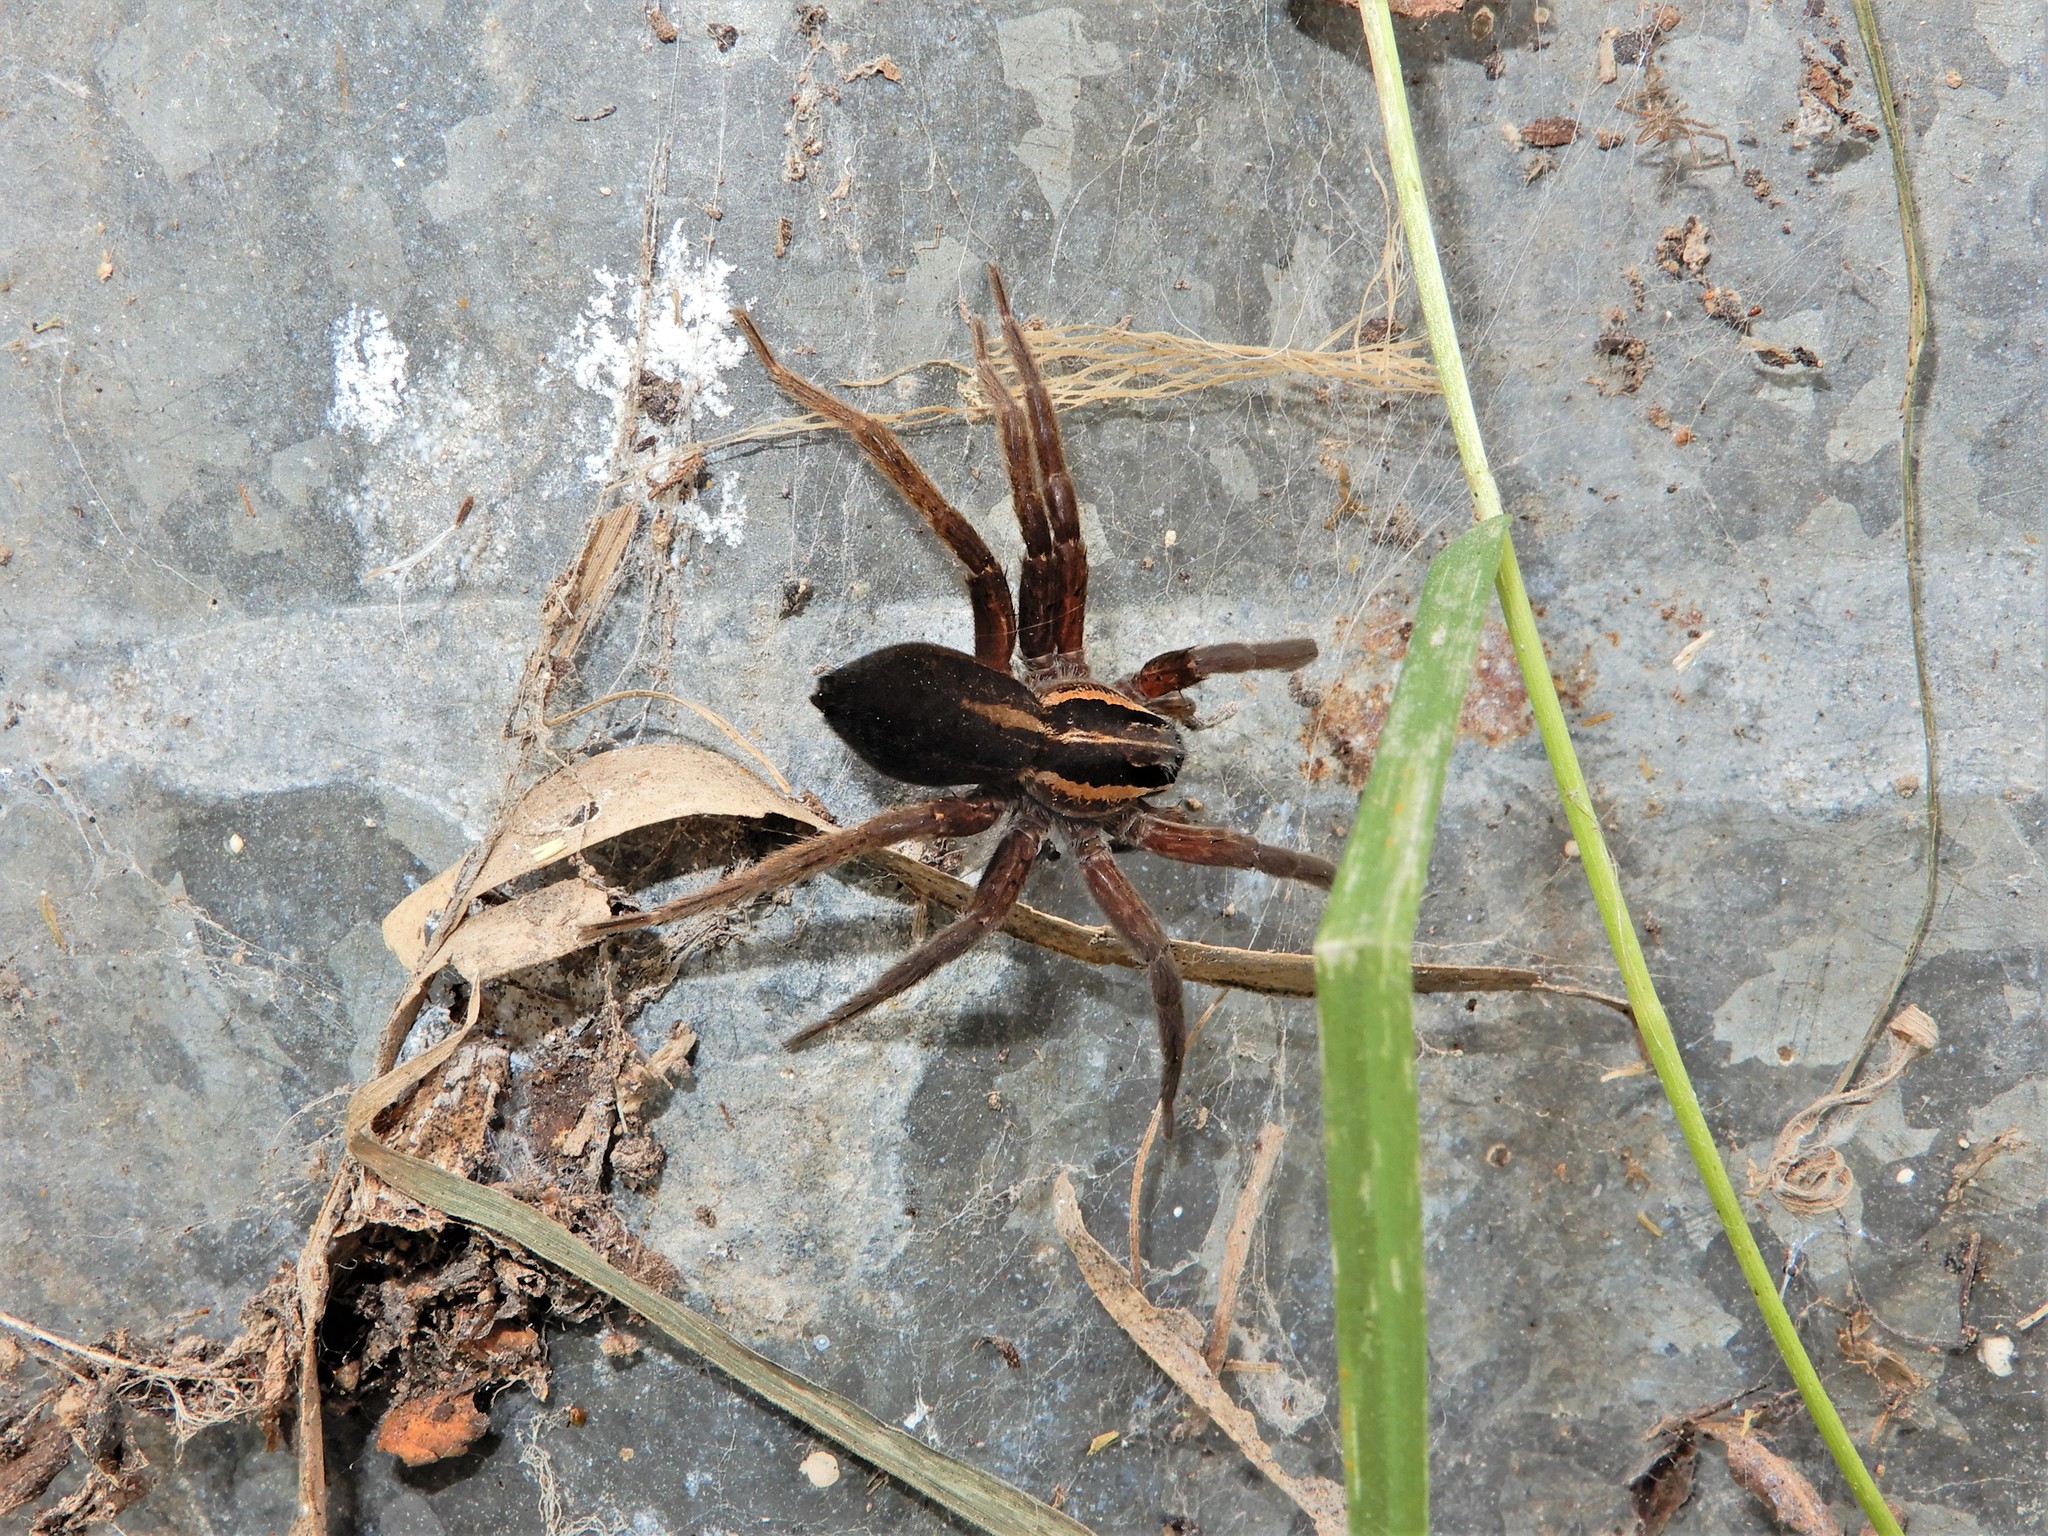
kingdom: Animalia
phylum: Arthropoda
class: Arachnida
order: Araneae
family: Pisauridae
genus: Dolomedes
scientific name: Dolomedes minor
